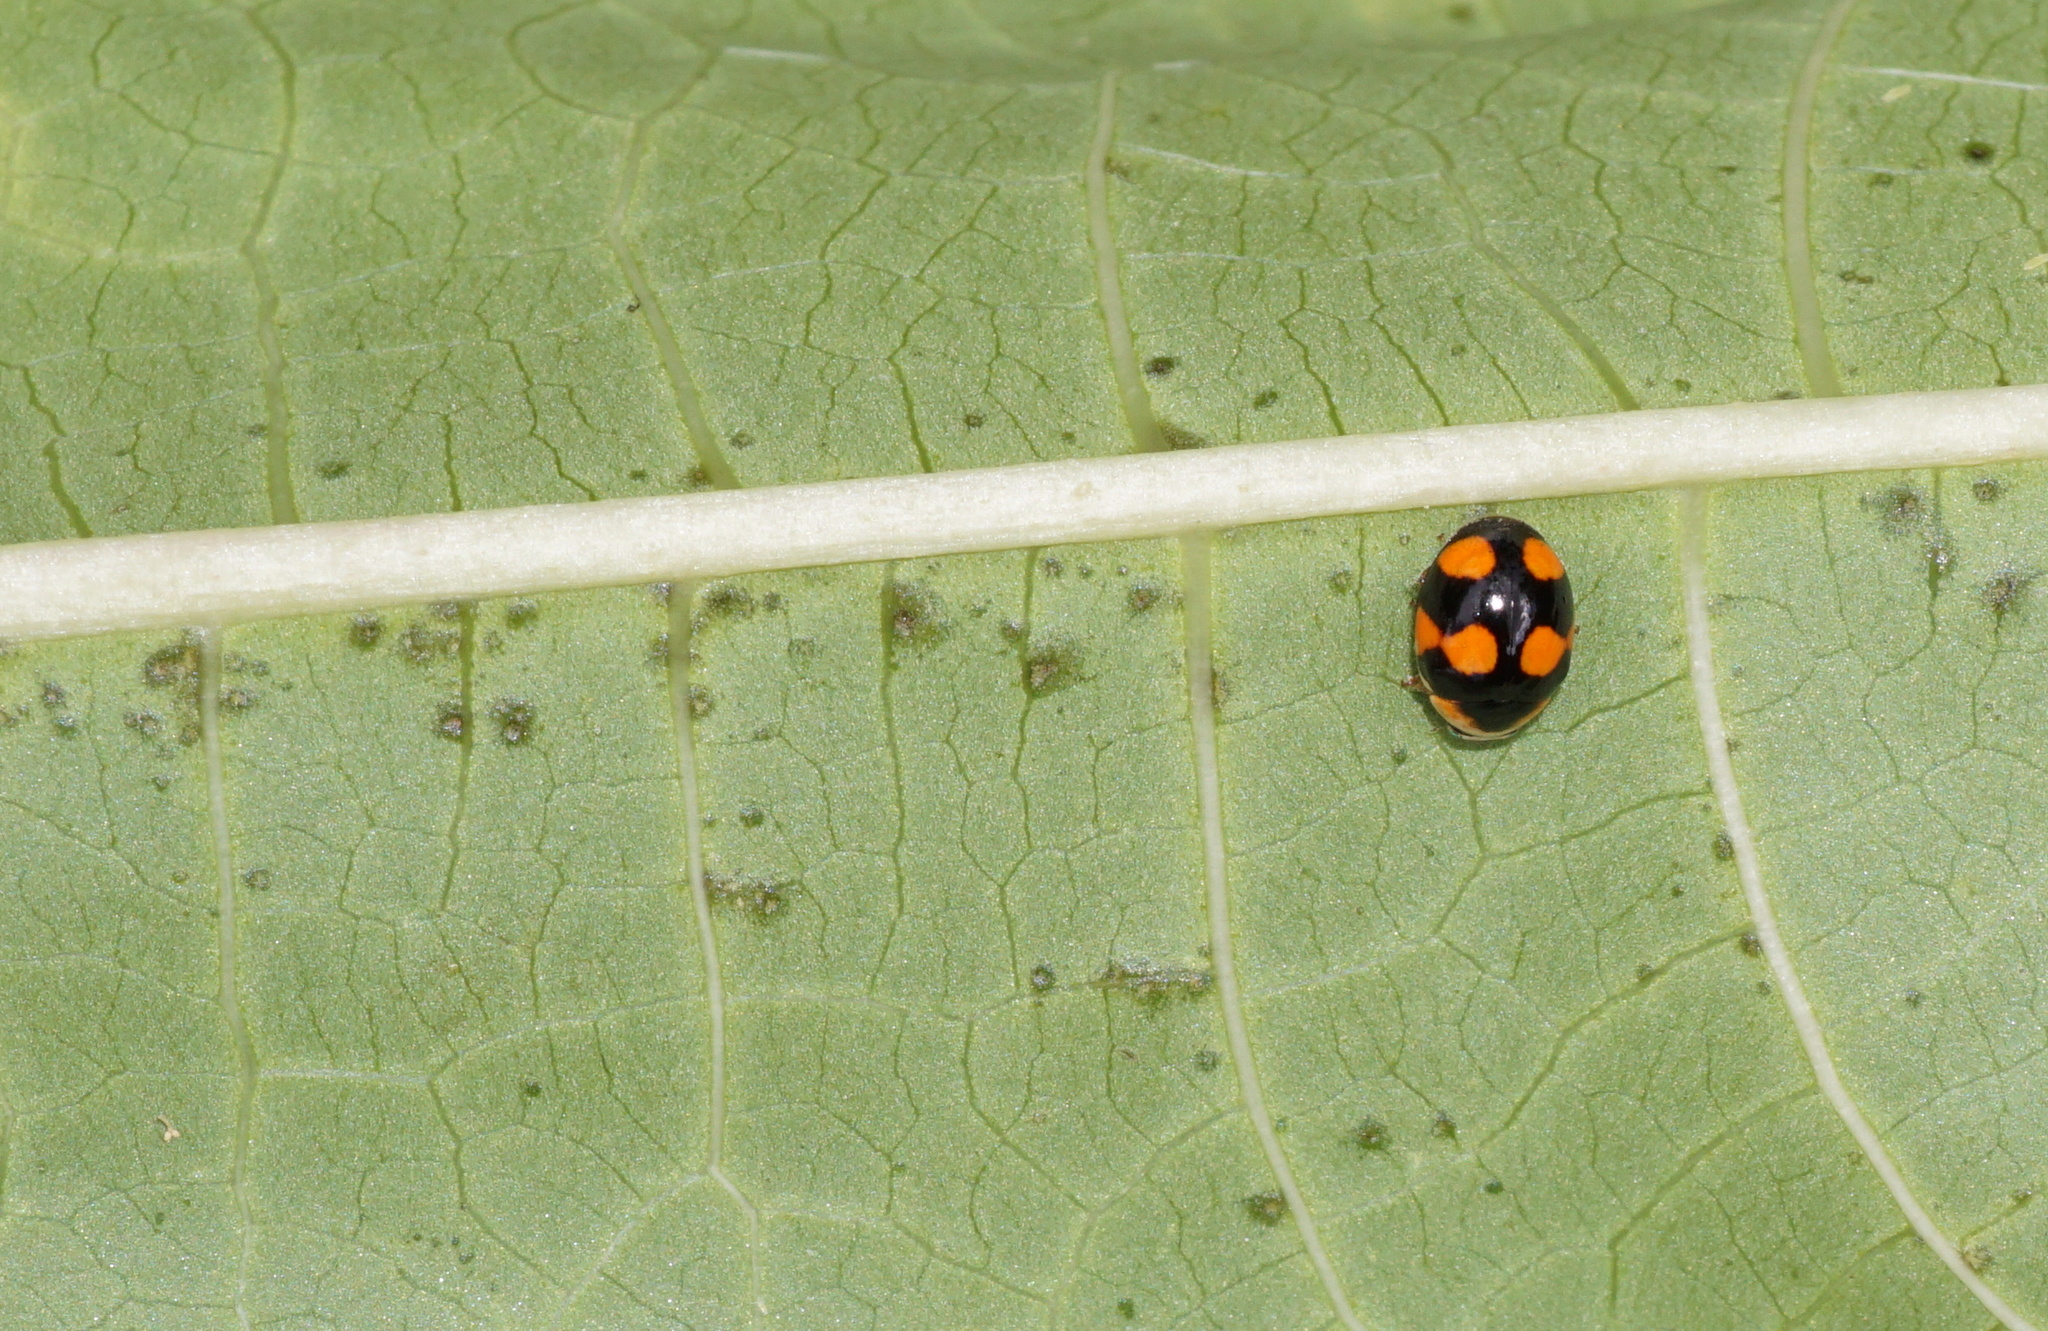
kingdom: Animalia
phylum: Arthropoda
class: Insecta
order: Coleoptera
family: Coccinellidae
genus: Brachiacantha
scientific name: Brachiacantha decora
